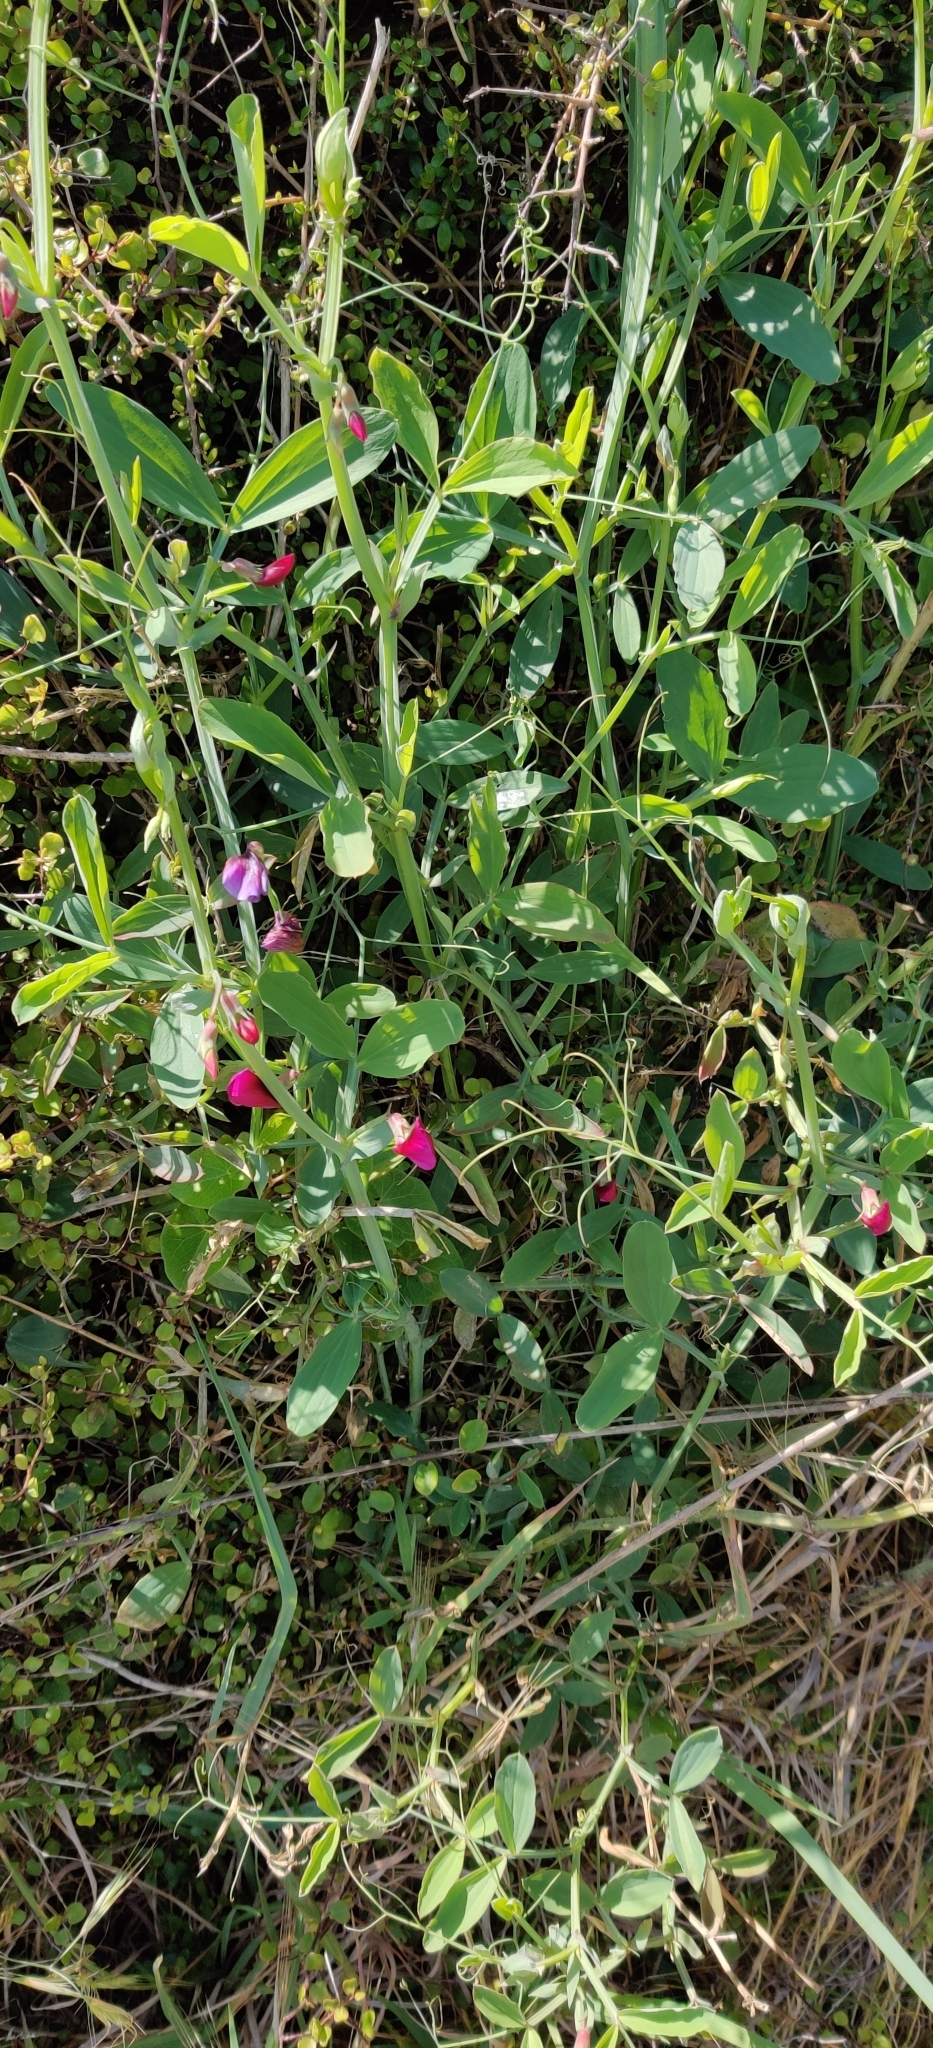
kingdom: Plantae
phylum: Tracheophyta
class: Magnoliopsida
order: Fabales
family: Fabaceae
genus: Lathyrus
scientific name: Lathyrus tingitanus
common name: Tangier pea
